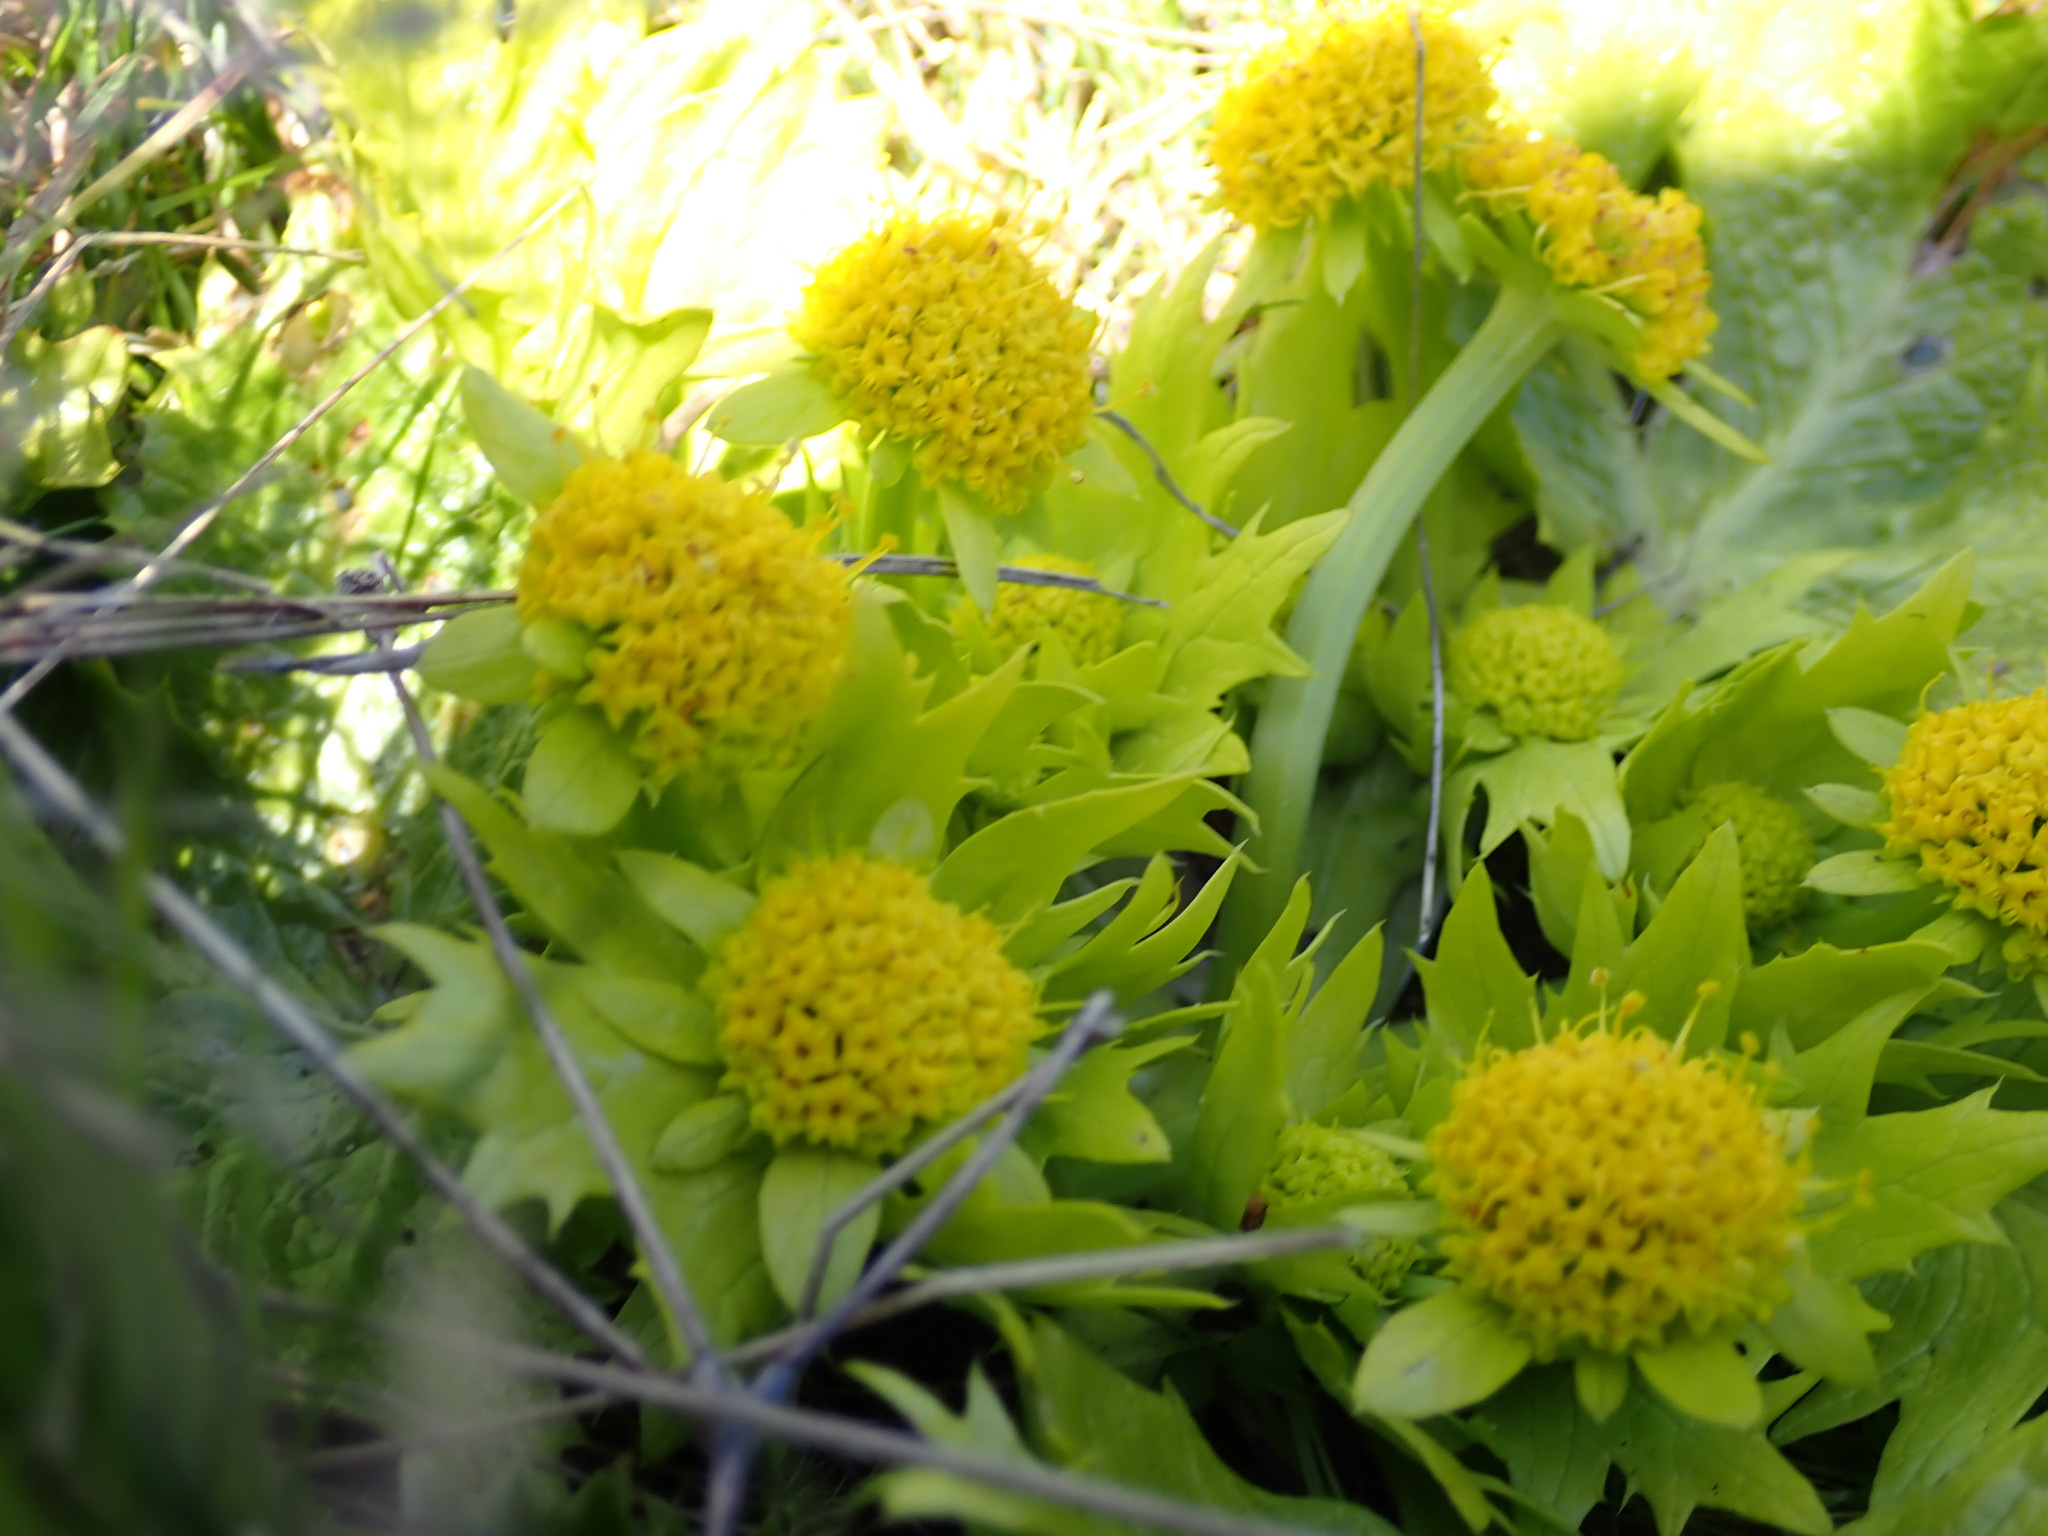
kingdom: Plantae
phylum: Tracheophyta
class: Magnoliopsida
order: Apiales
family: Apiaceae
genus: Sanicula
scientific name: Sanicula arctopoides
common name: Footsteps-of-spring
